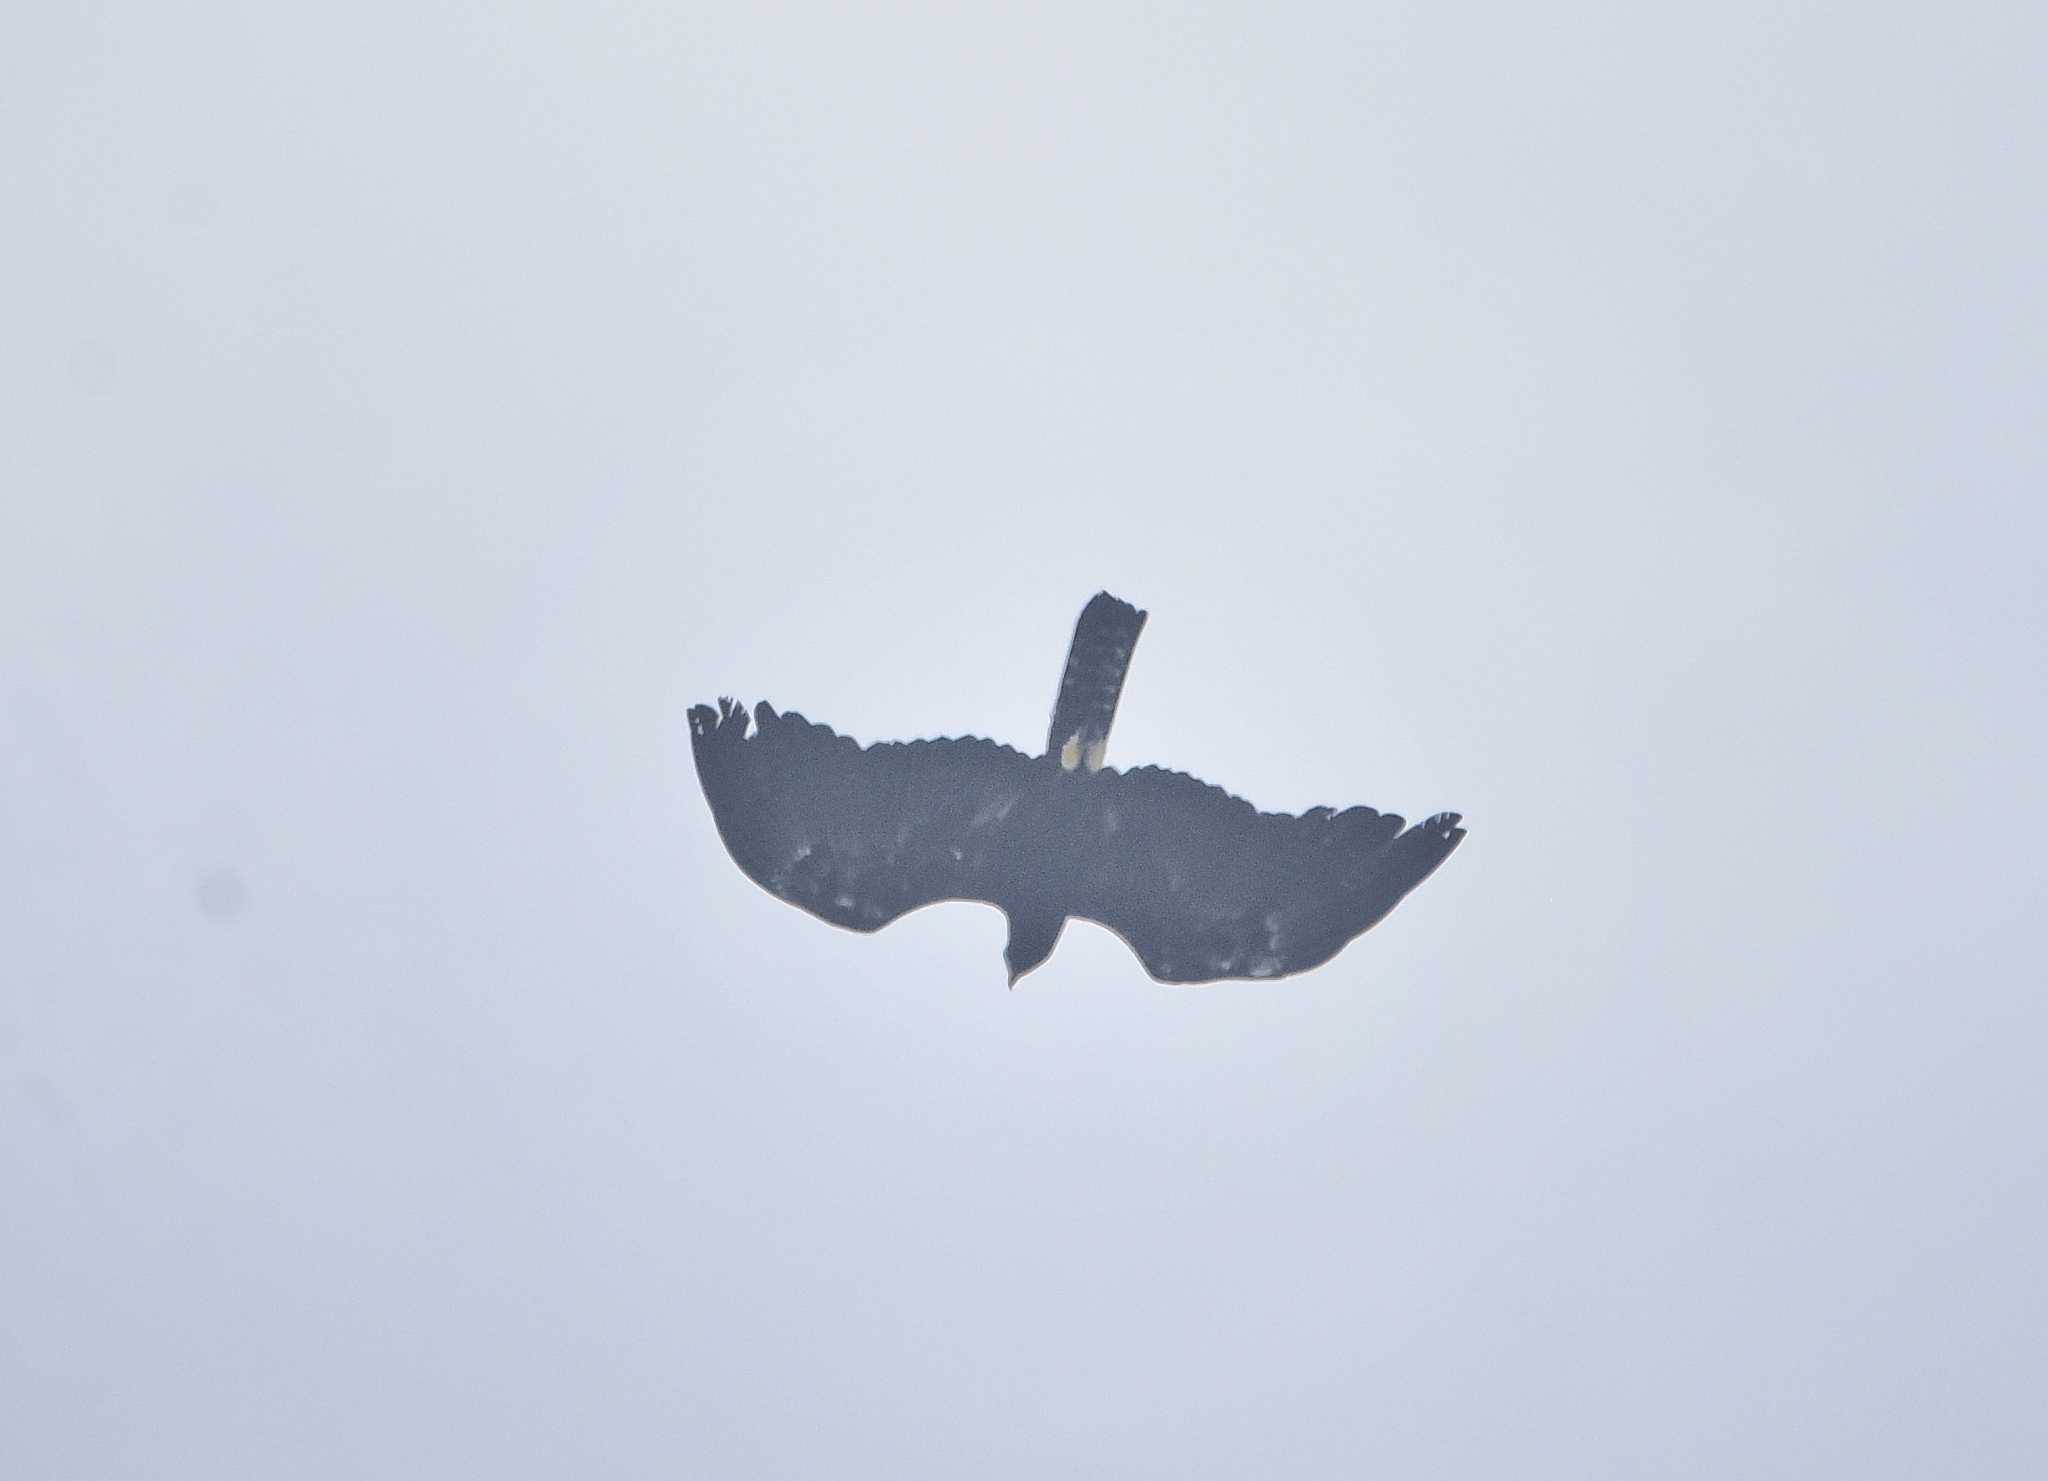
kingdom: Animalia
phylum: Chordata
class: Aves
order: Accipitriformes
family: Accipitridae
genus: Ictinaetus
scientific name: Ictinaetus malayensis
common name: Black eagle
